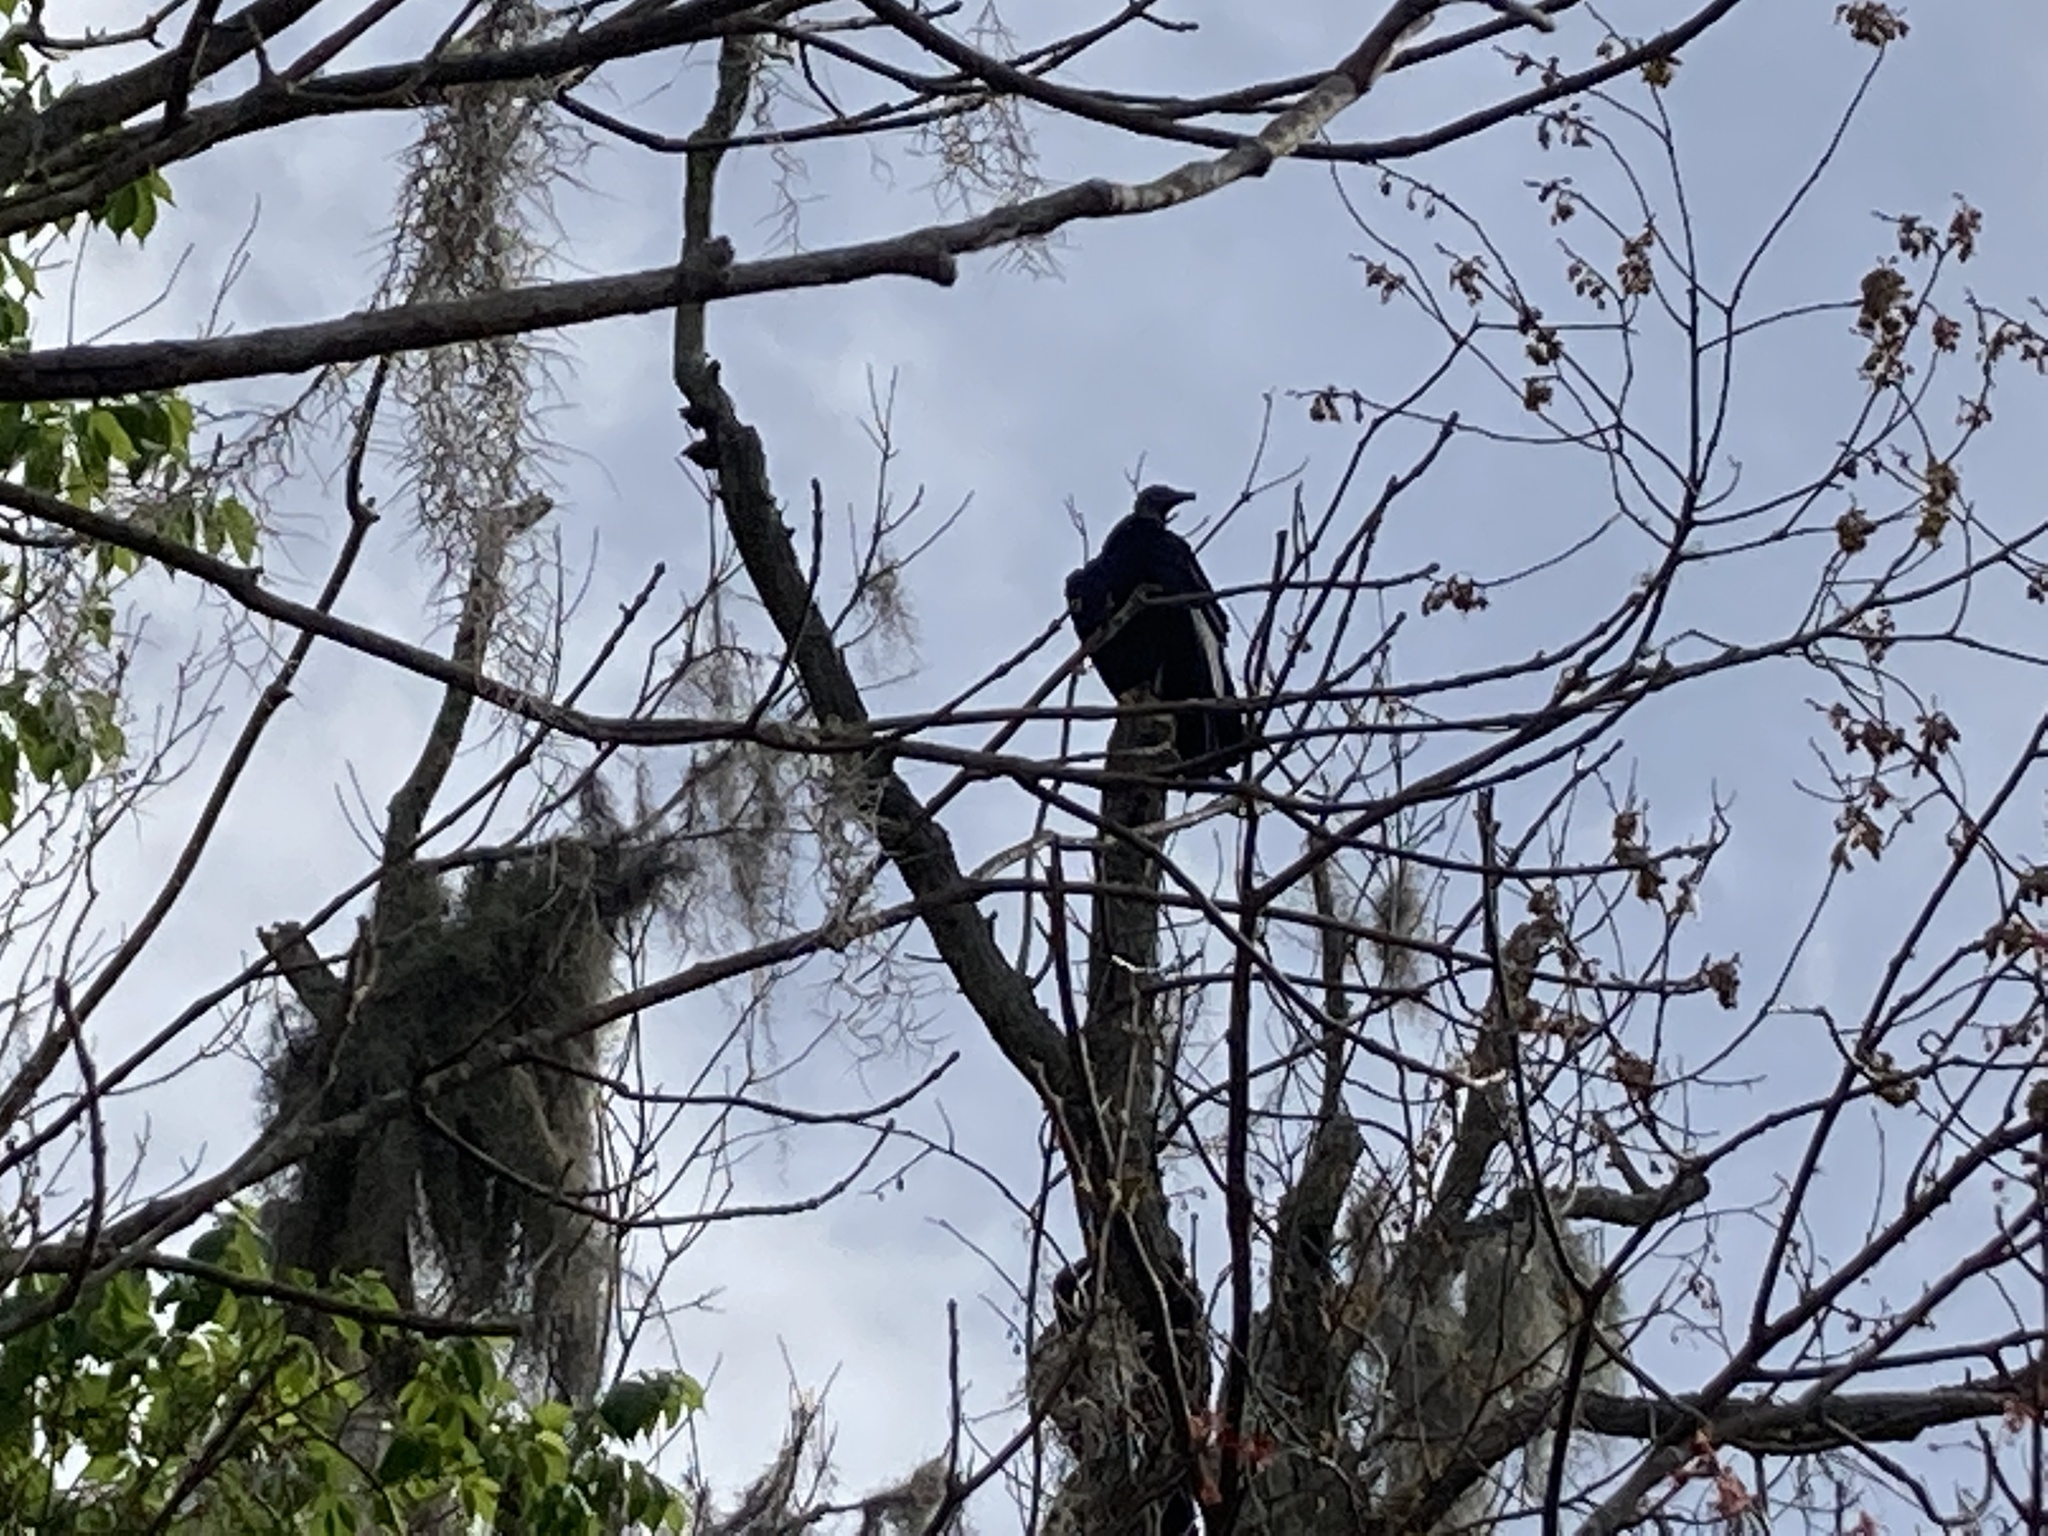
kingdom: Animalia
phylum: Chordata
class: Aves
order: Accipitriformes
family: Cathartidae
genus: Coragyps
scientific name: Coragyps atratus
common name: Black vulture
